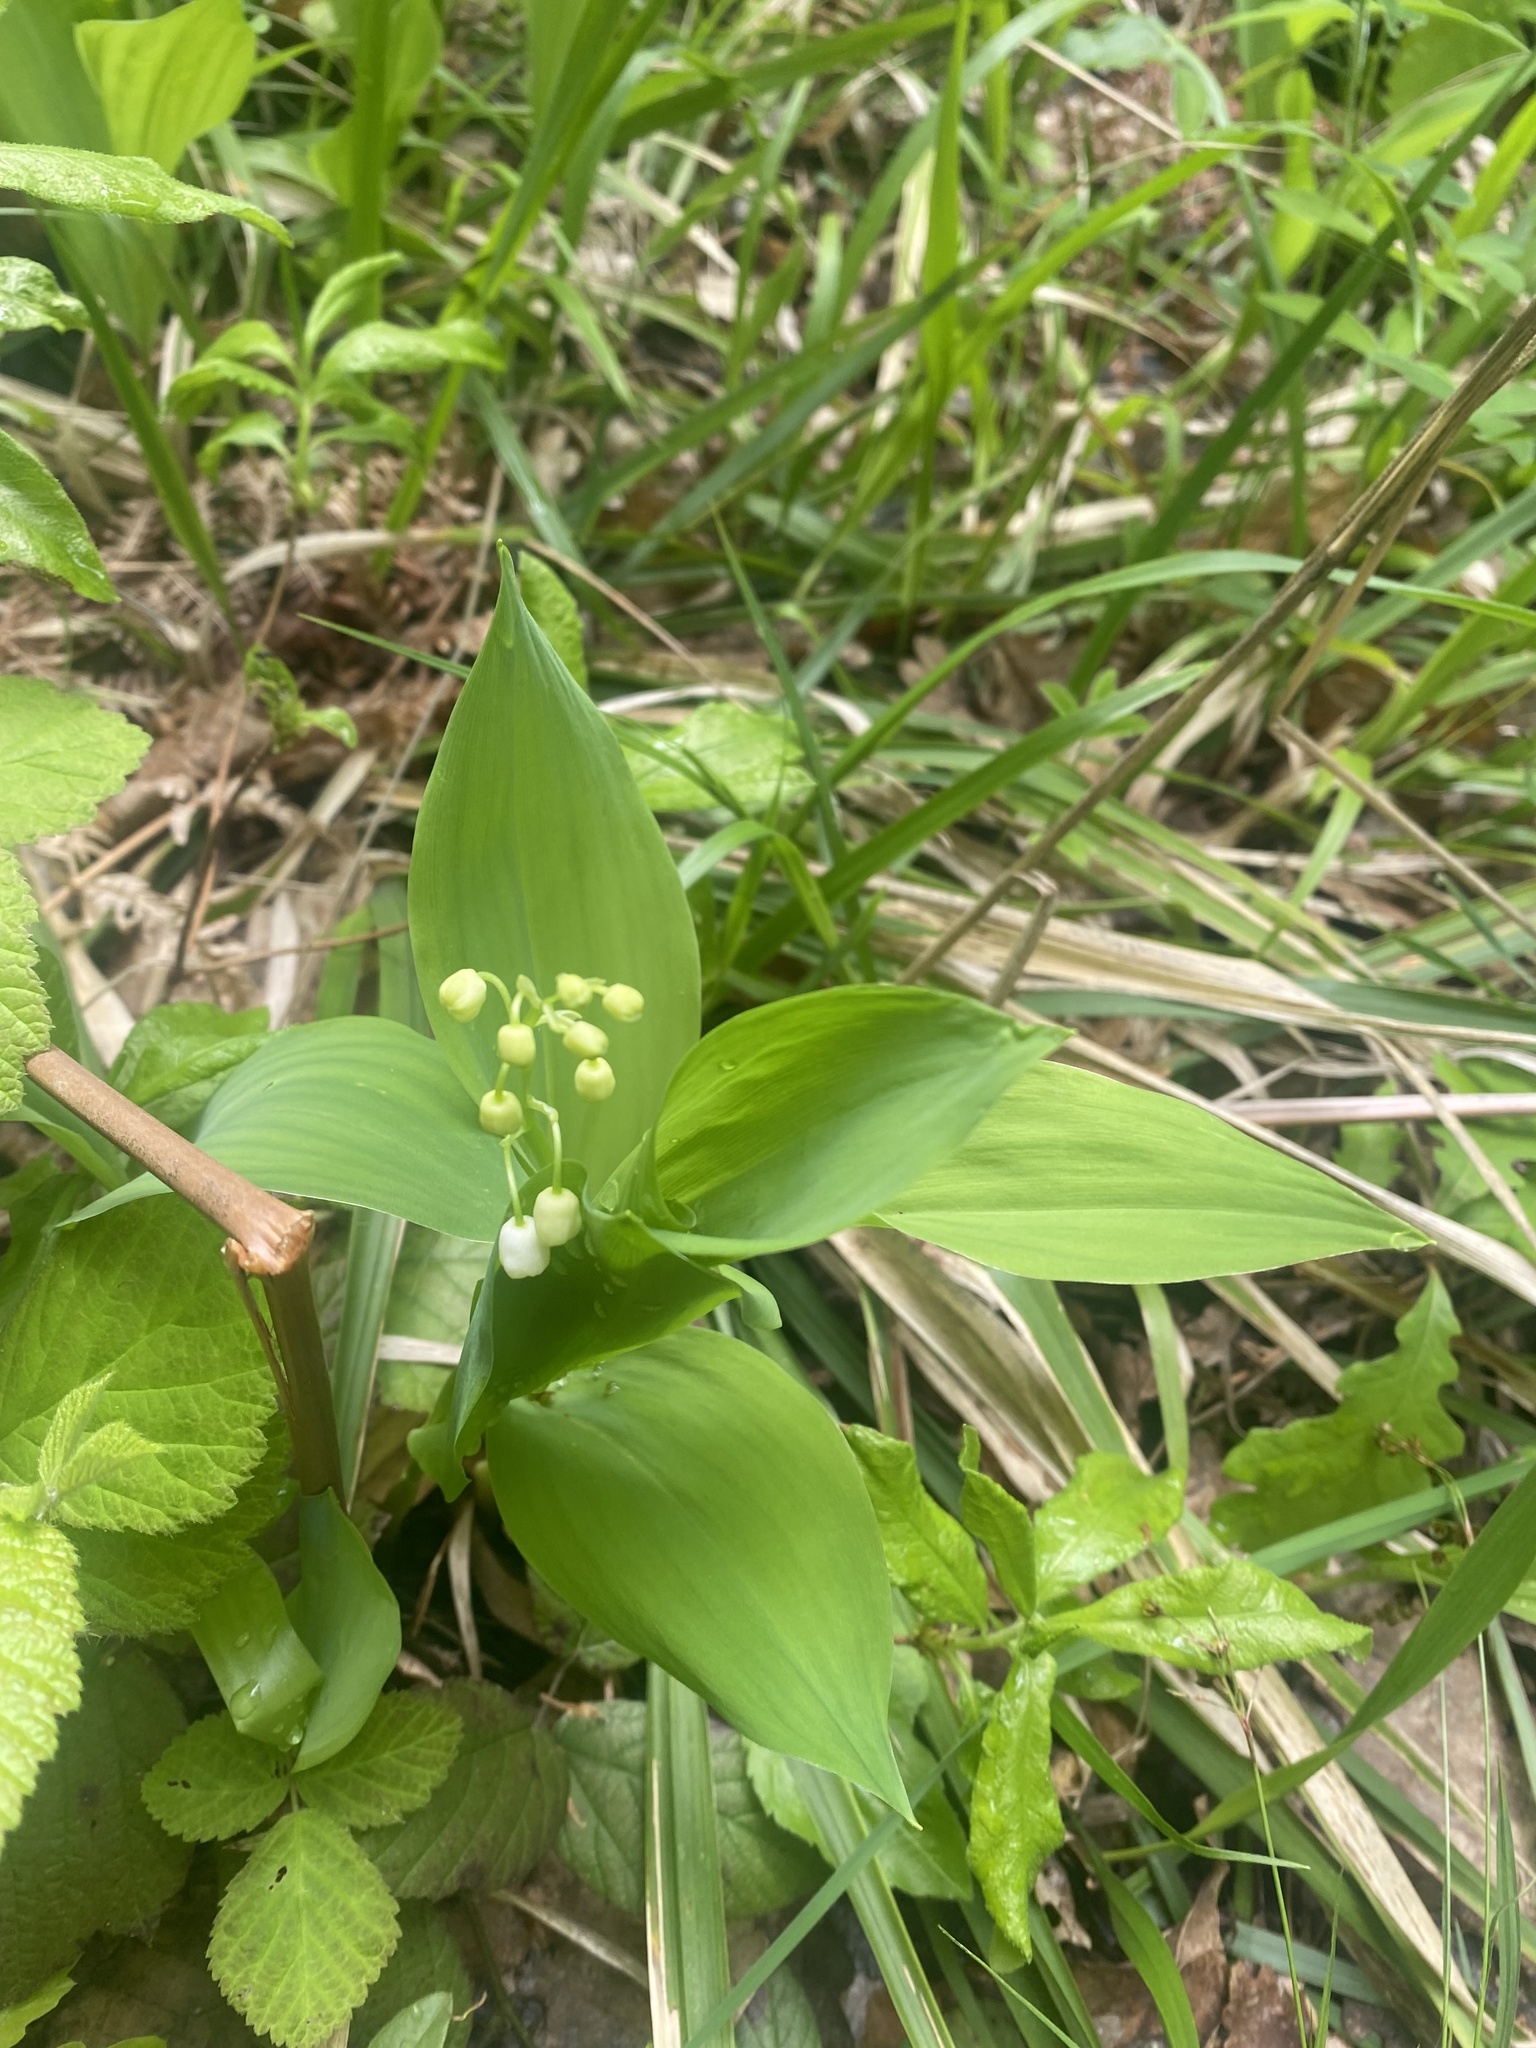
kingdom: Plantae
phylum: Tracheophyta
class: Liliopsida
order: Asparagales
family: Asparagaceae
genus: Convallaria
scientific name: Convallaria majalis
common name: Lily-of-the-valley
